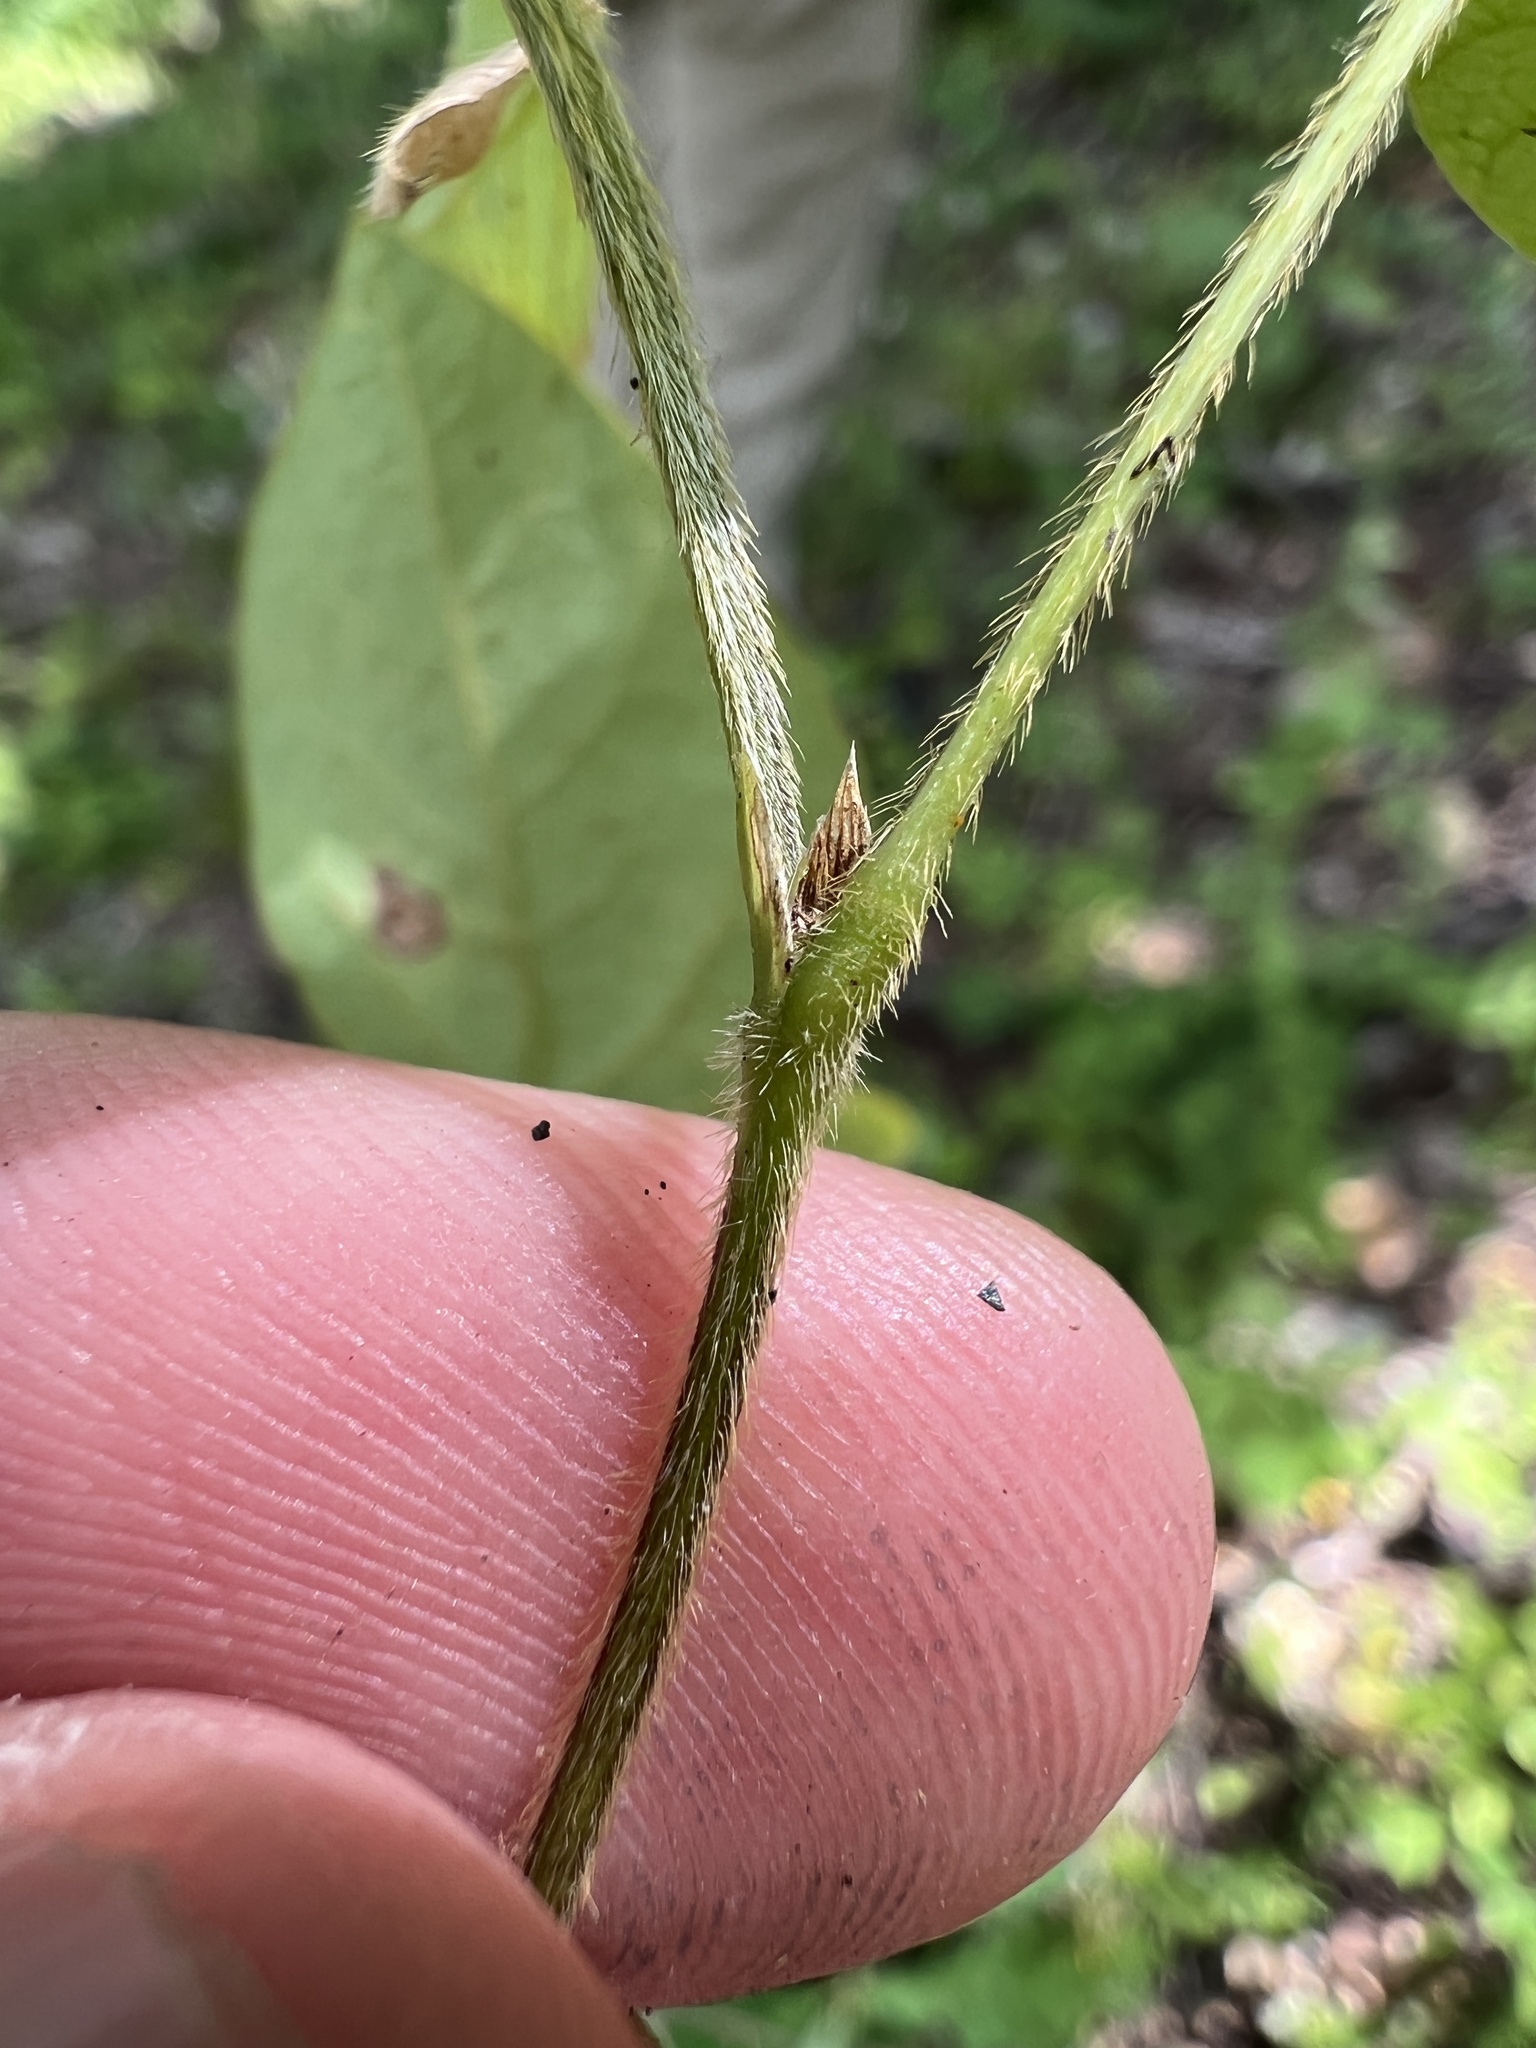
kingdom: Plantae
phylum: Tracheophyta
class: Magnoliopsida
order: Fabales
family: Fabaceae
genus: Amphicarpaea
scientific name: Amphicarpaea bracteata
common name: American hog peanut
